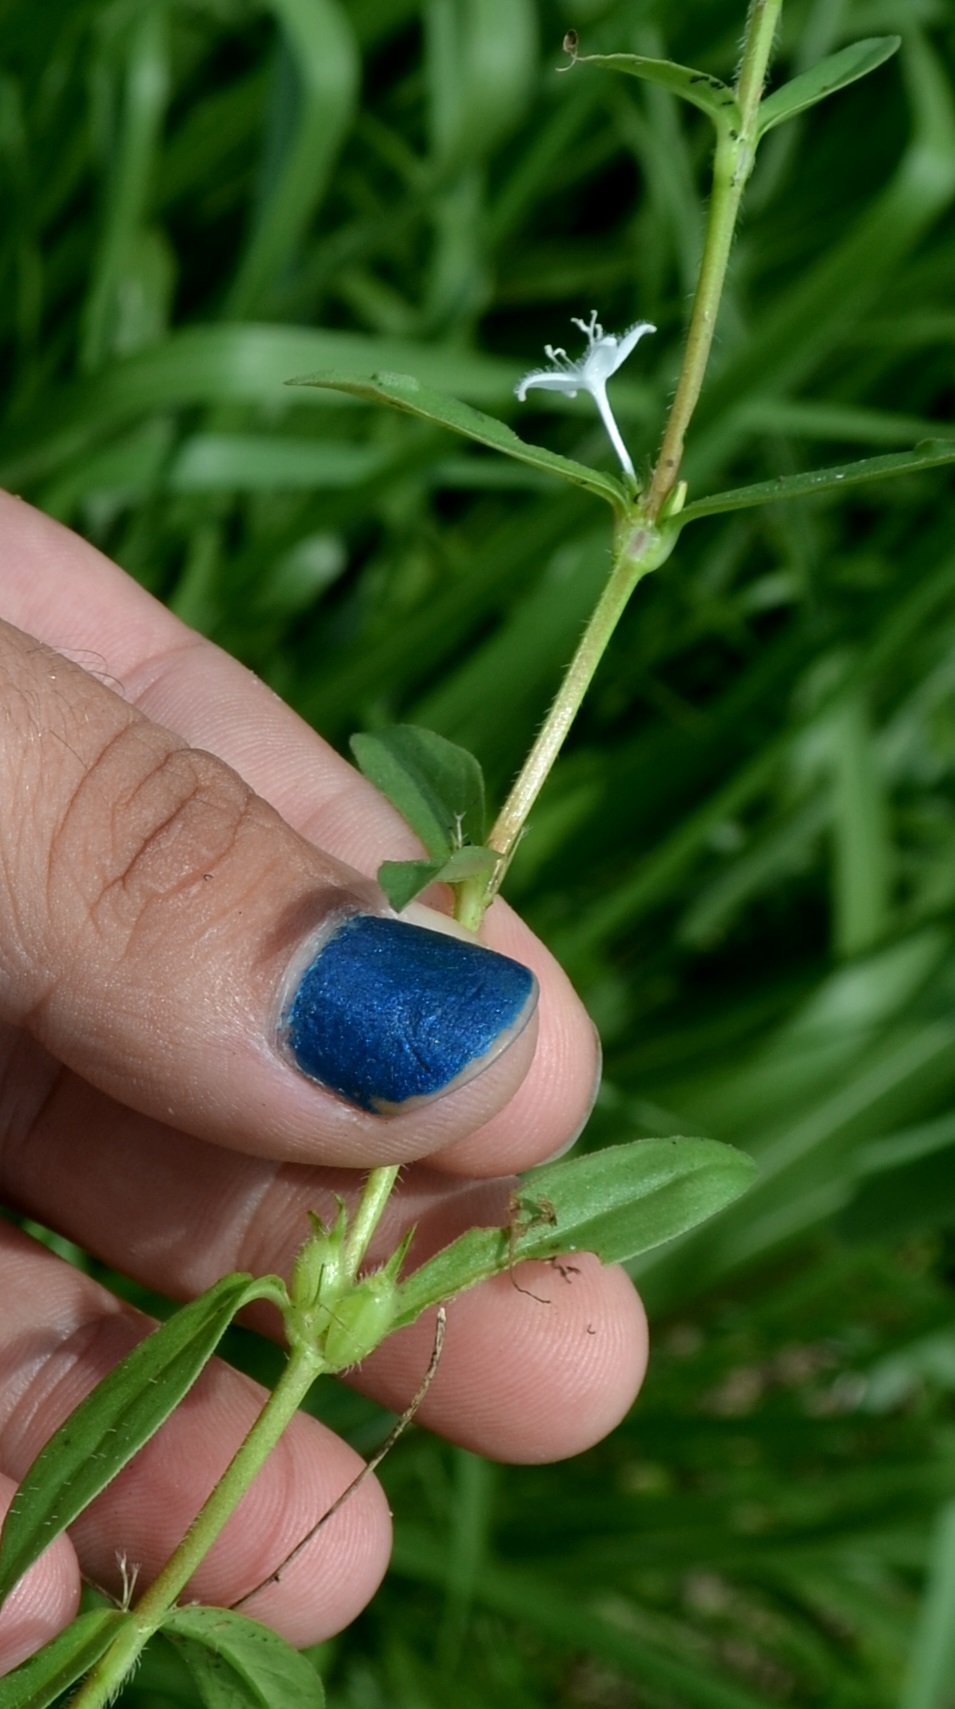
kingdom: Plantae
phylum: Tracheophyta
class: Magnoliopsida
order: Gentianales
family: Rubiaceae
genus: Diodia
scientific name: Diodia virginiana
